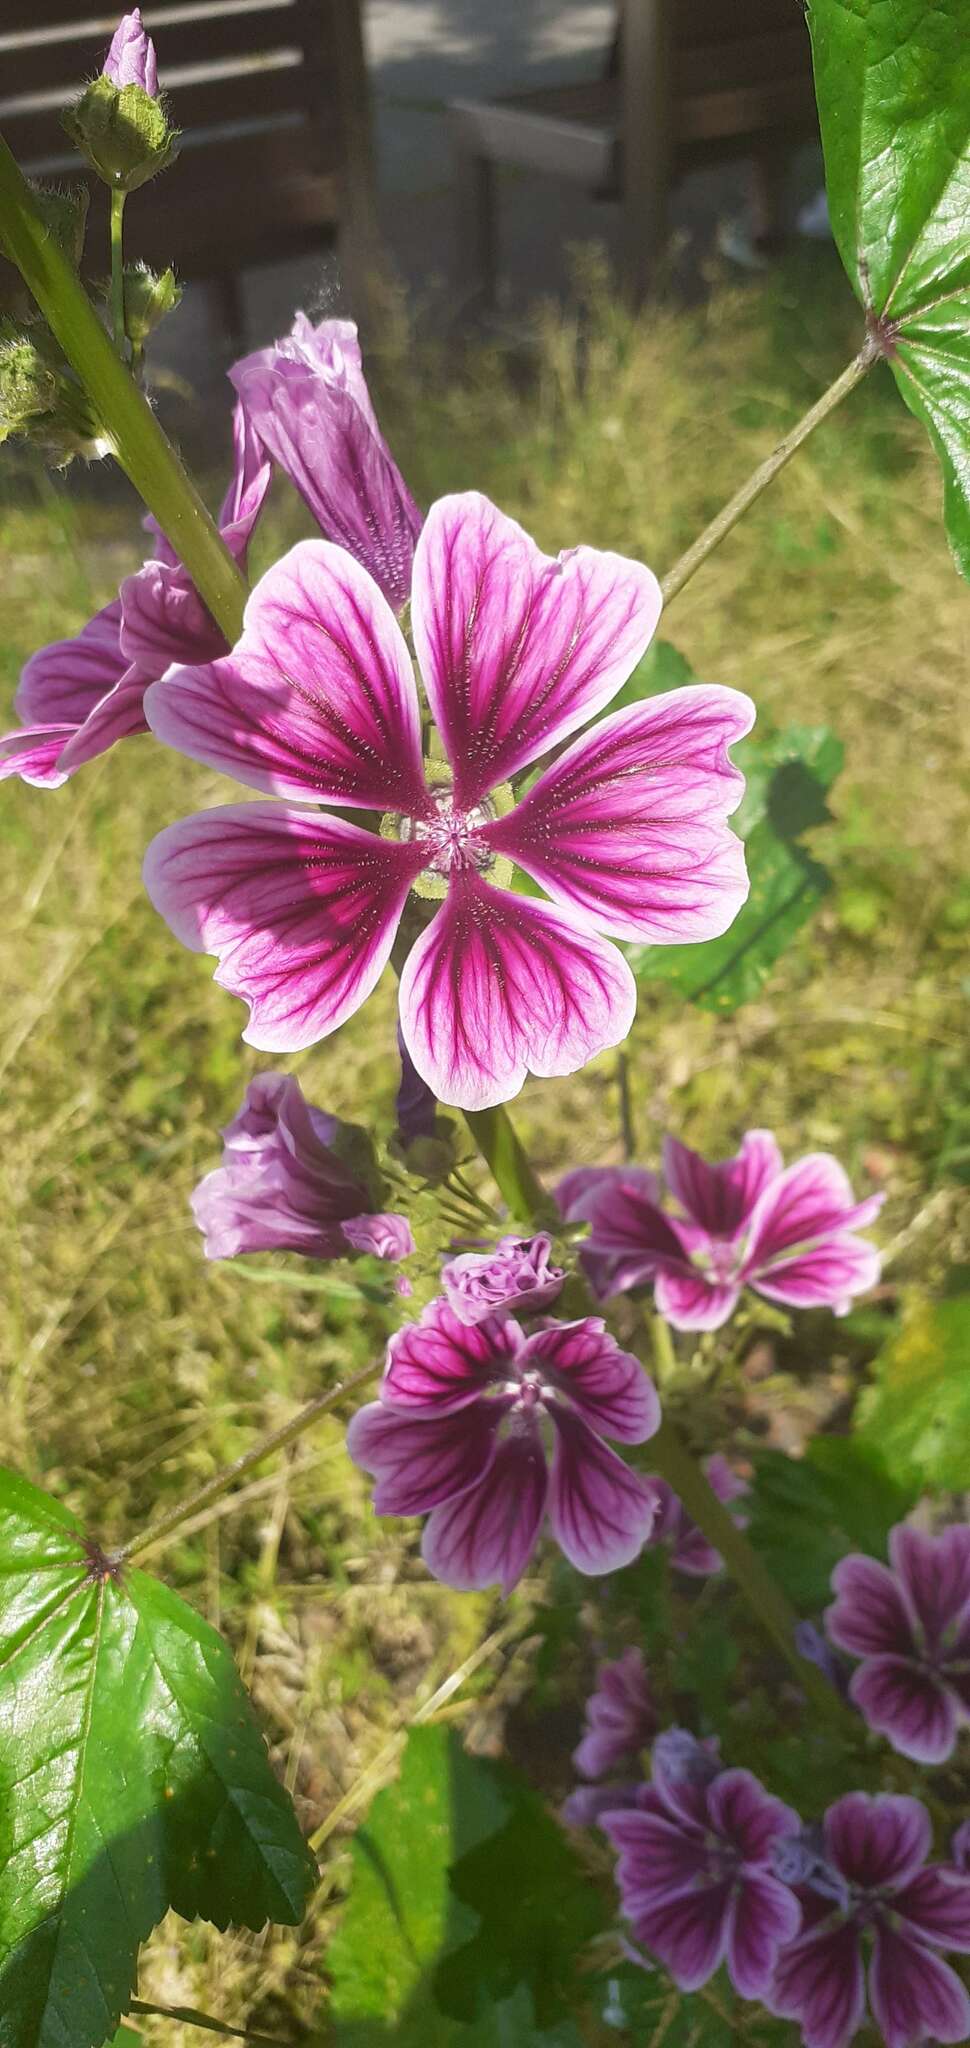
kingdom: Plantae
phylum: Tracheophyta
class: Magnoliopsida
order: Malvales
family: Malvaceae
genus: Malva
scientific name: Malva sylvestris
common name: Common mallow
